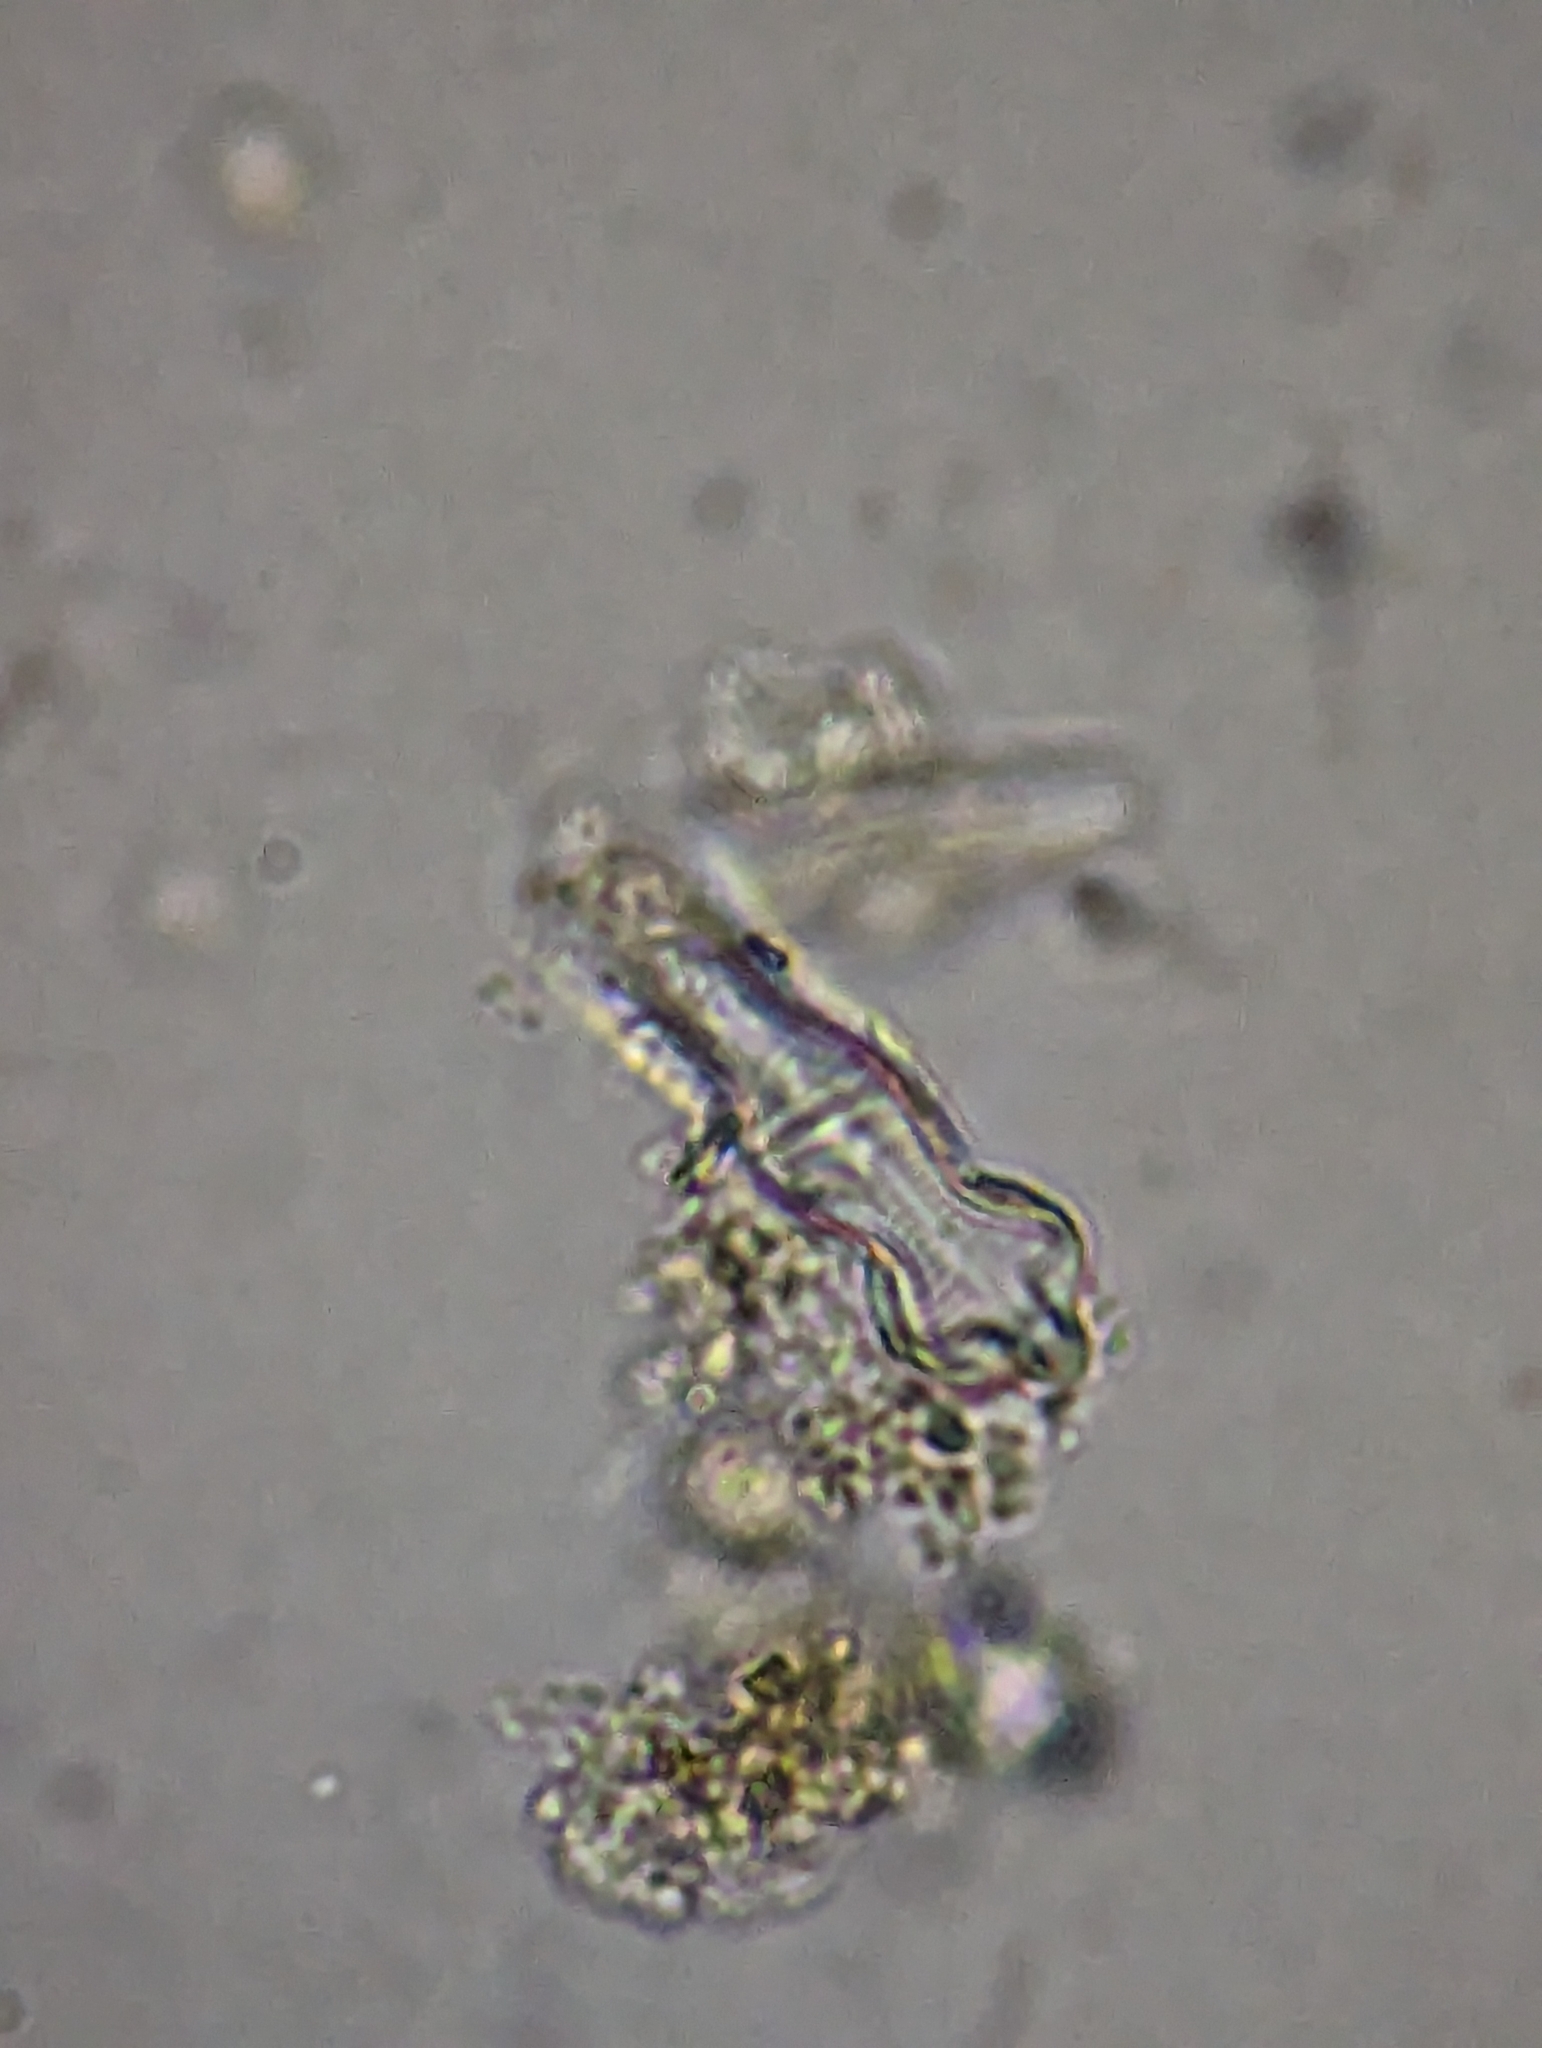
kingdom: Chromista
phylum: Ochrophyta
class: Bacillariophyceae
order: Cymbellales
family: Gomphonemataceae
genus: Gomphonema
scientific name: Gomphonema acuminatum
